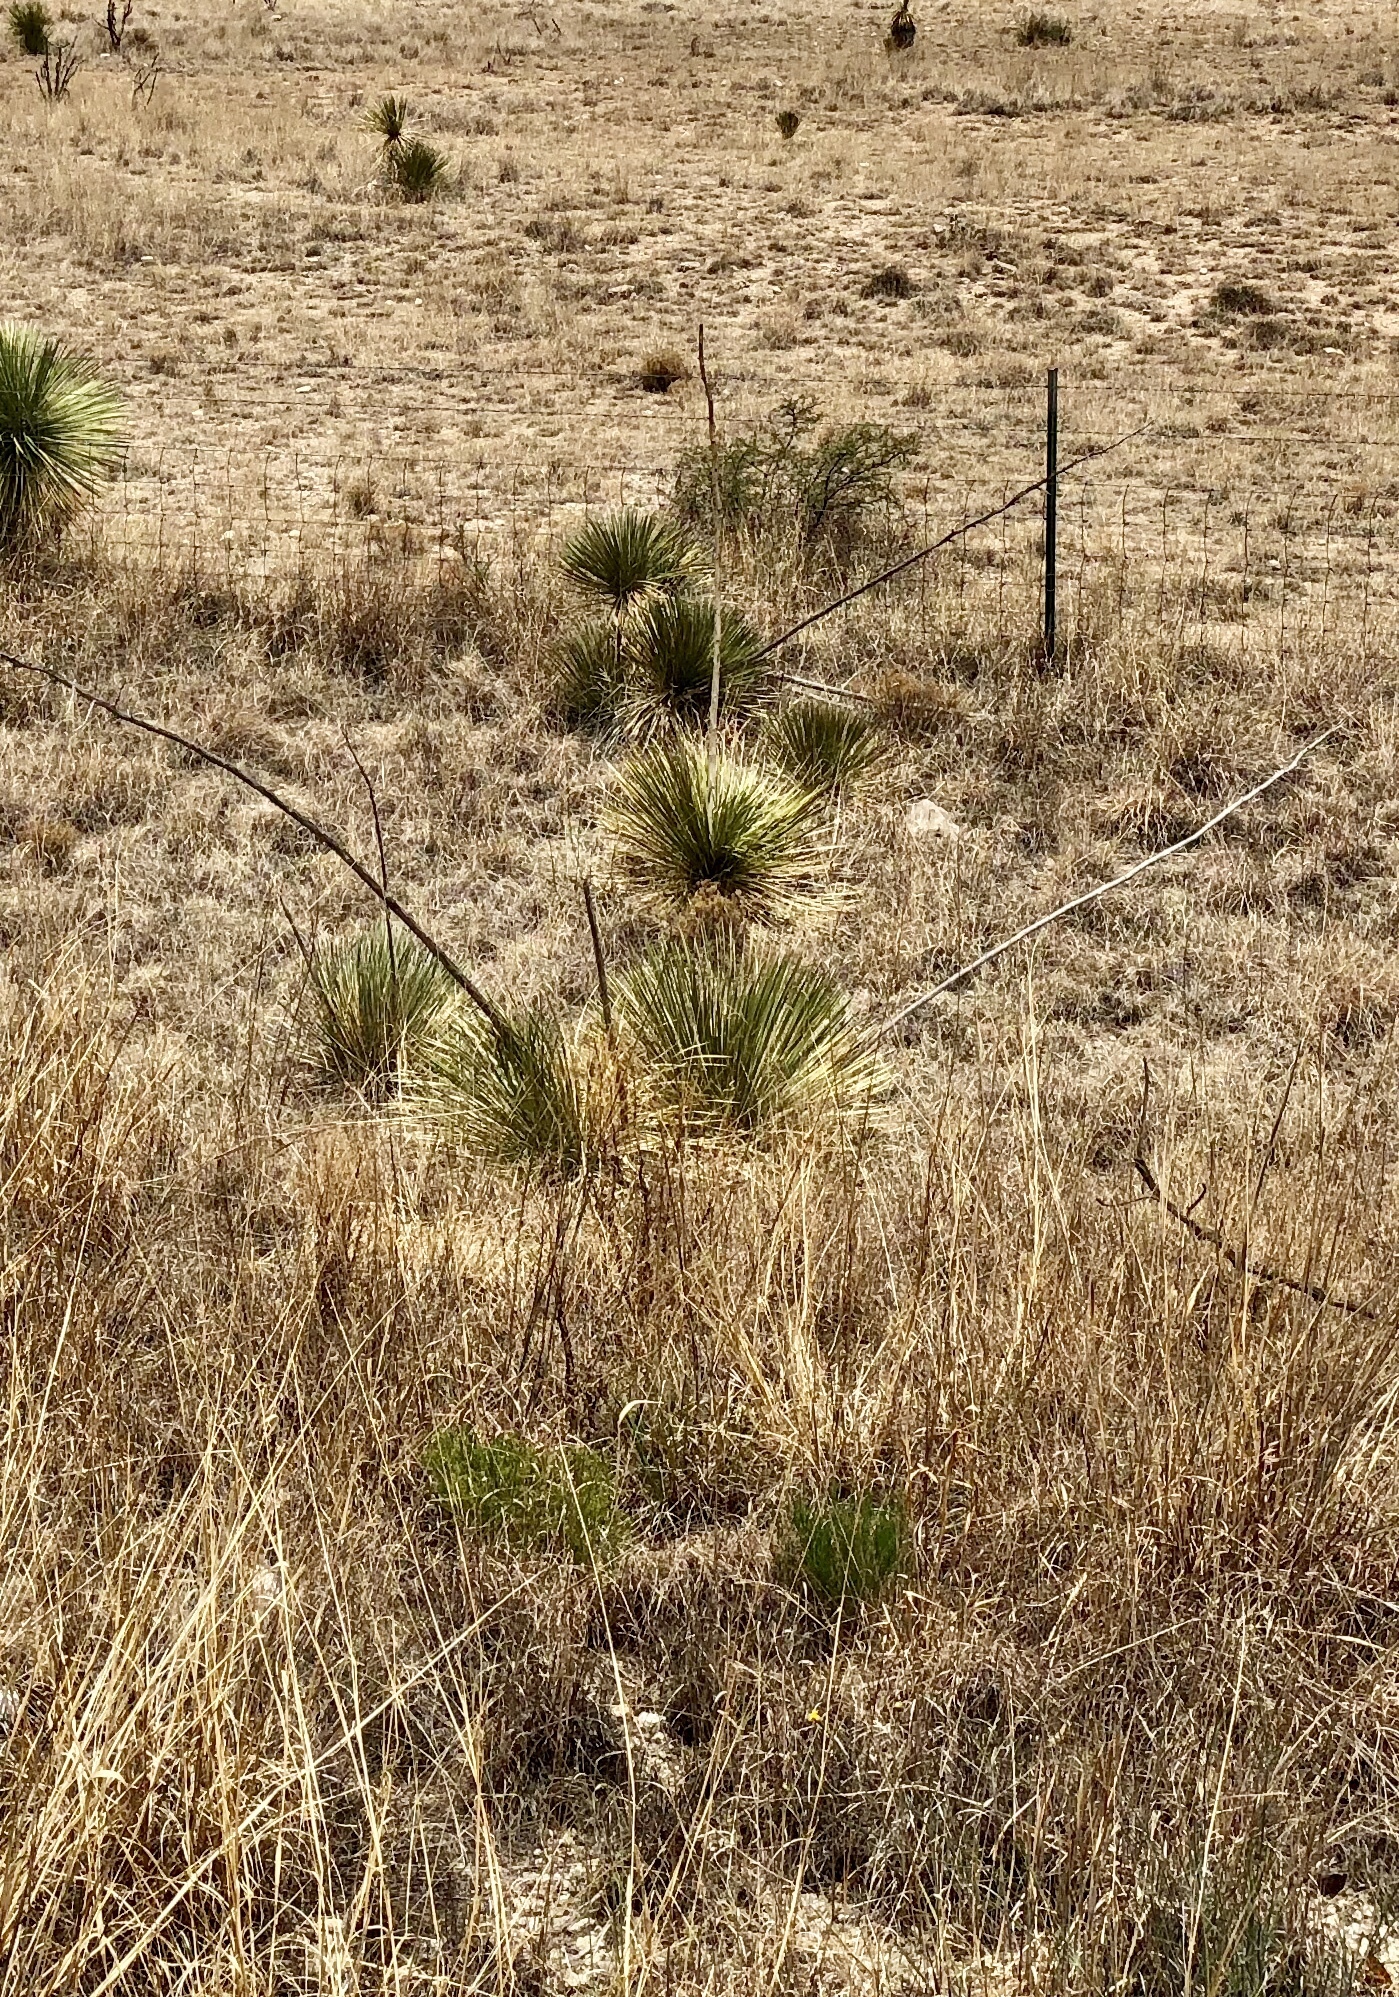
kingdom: Plantae
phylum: Tracheophyta
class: Liliopsida
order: Asparagales
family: Asparagaceae
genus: Yucca
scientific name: Yucca elata
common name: Palmella
